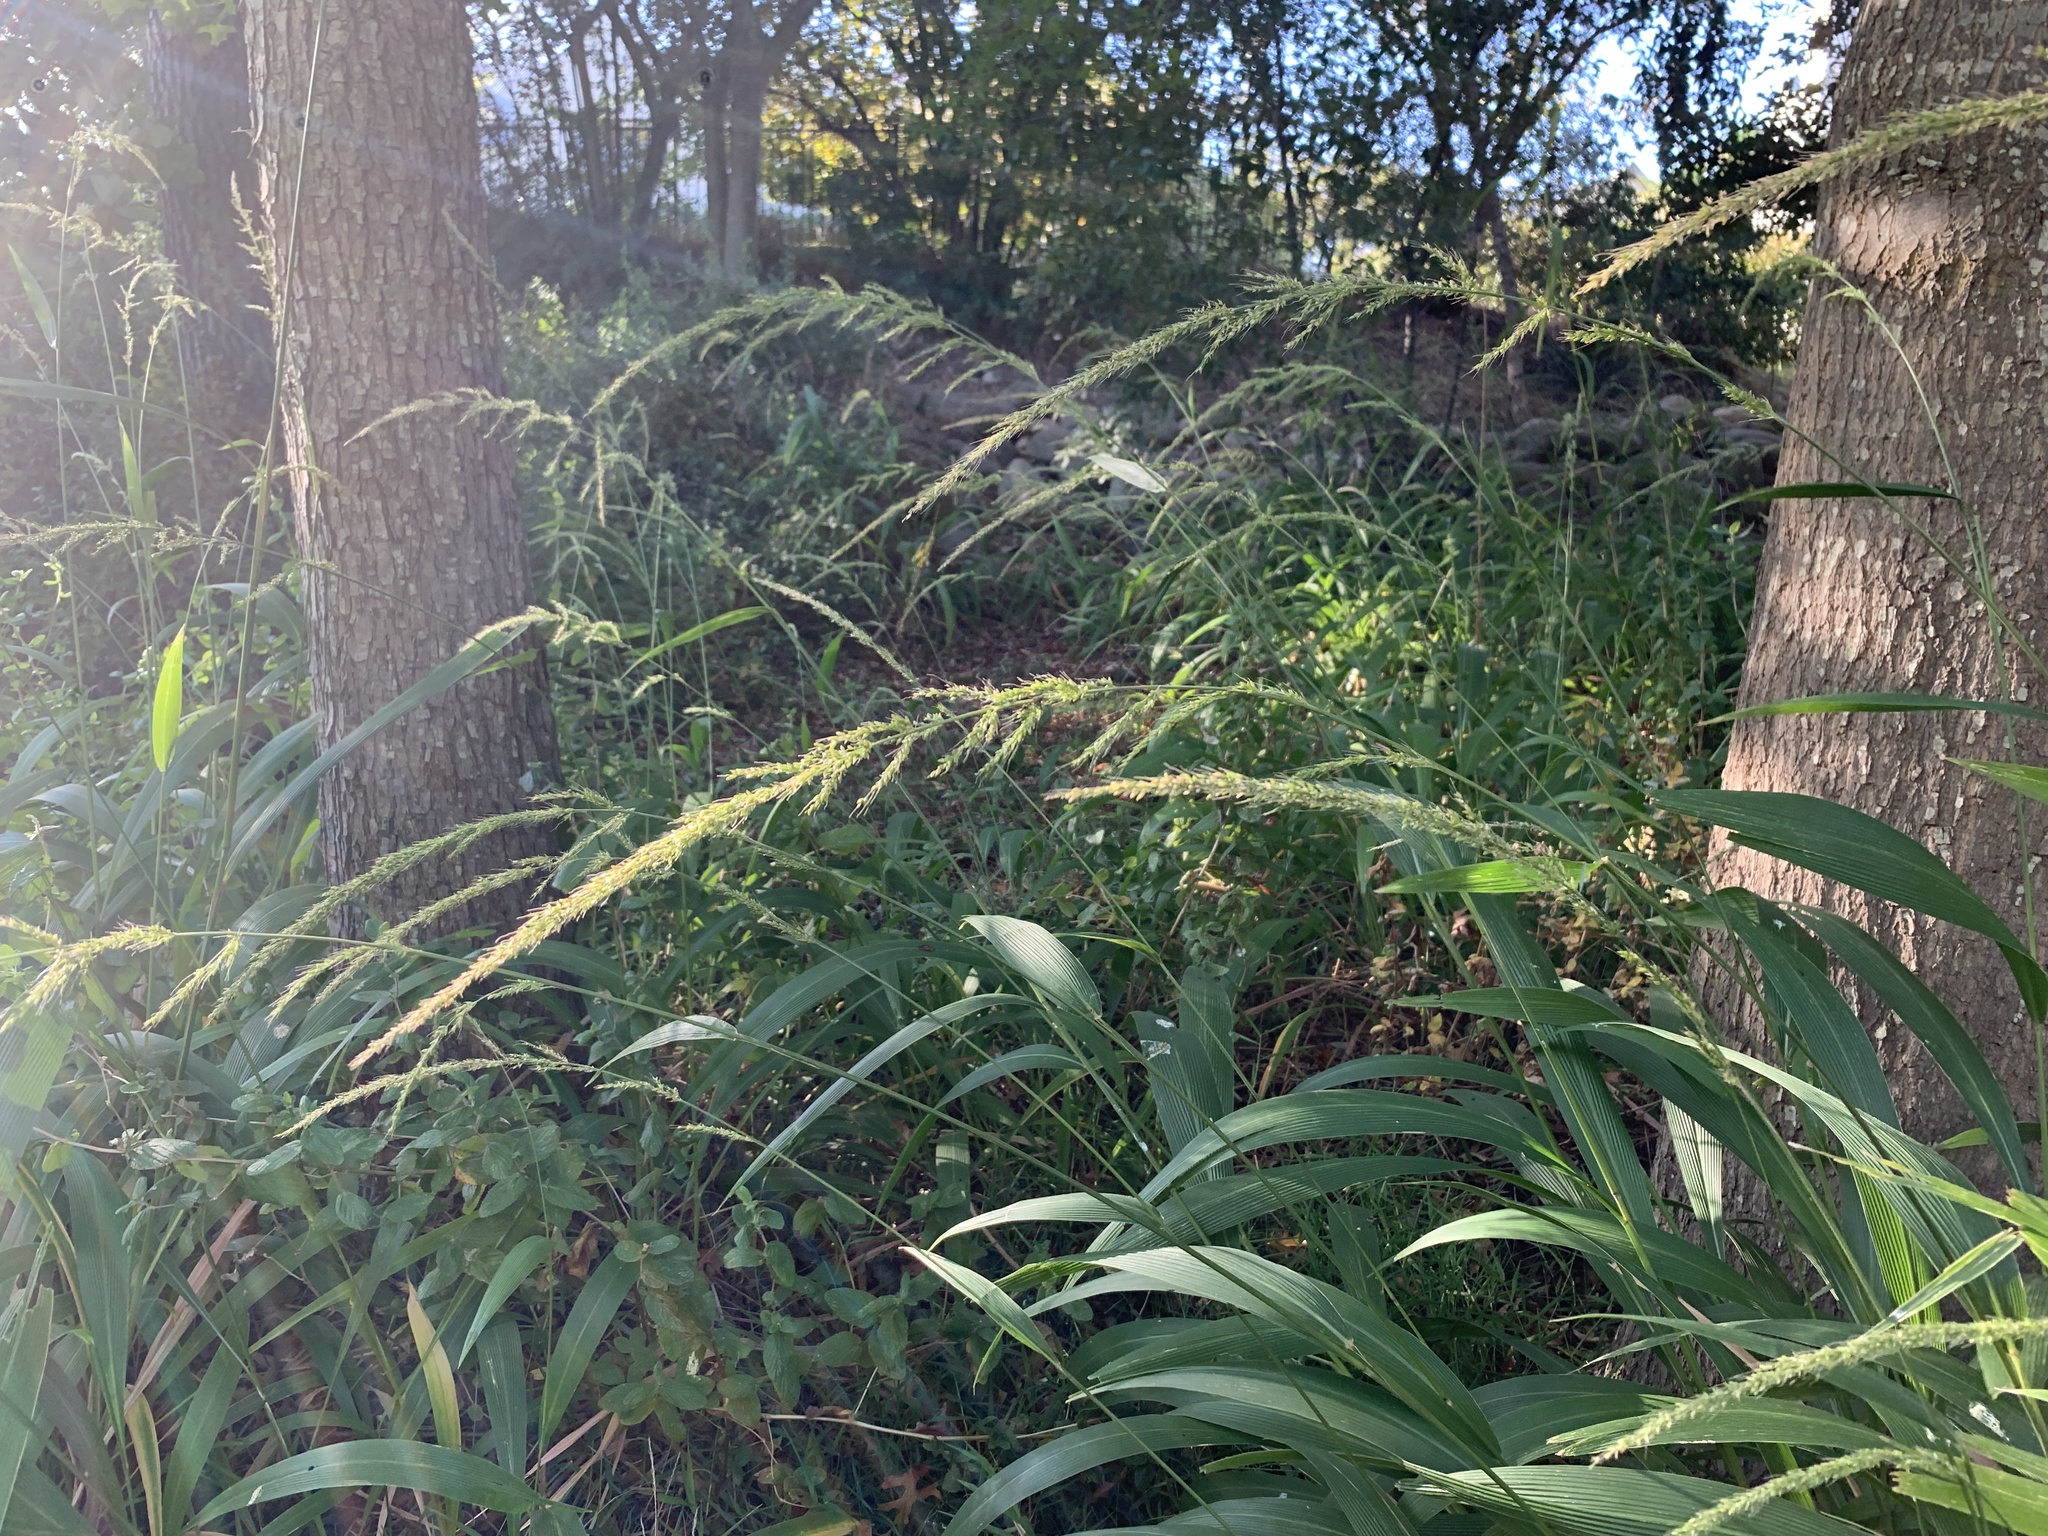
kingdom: Plantae
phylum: Tracheophyta
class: Liliopsida
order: Poales
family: Poaceae
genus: Setaria
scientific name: Setaria megaphylla
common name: Bigleaf bristlegrass
